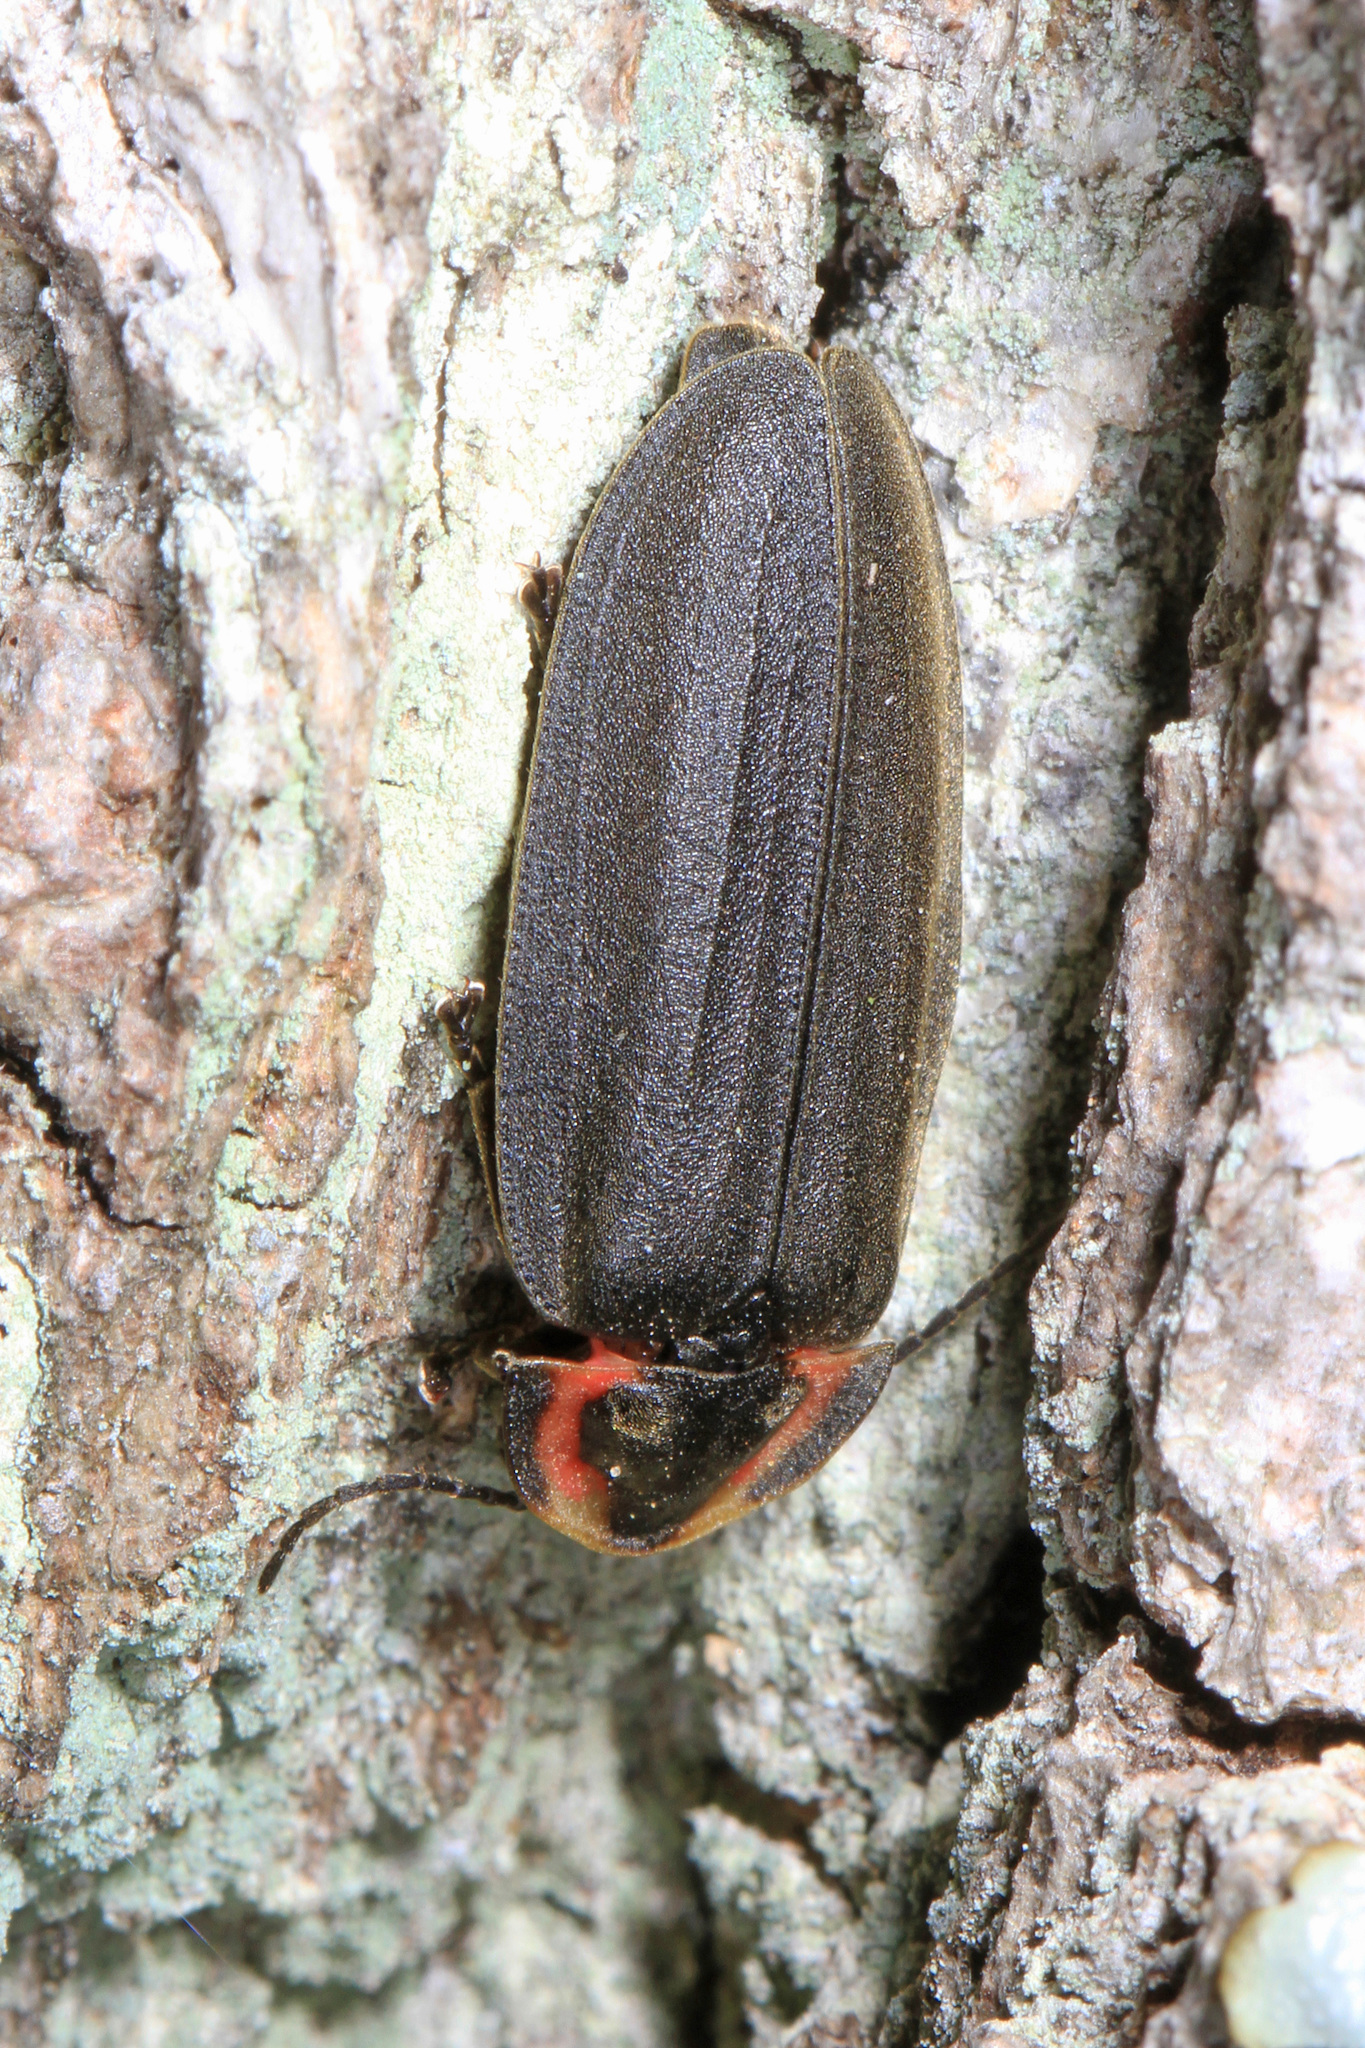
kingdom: Animalia
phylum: Arthropoda
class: Insecta
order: Coleoptera
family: Lampyridae
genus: Photinus
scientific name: Photinus corrusca
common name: Winter firefly
